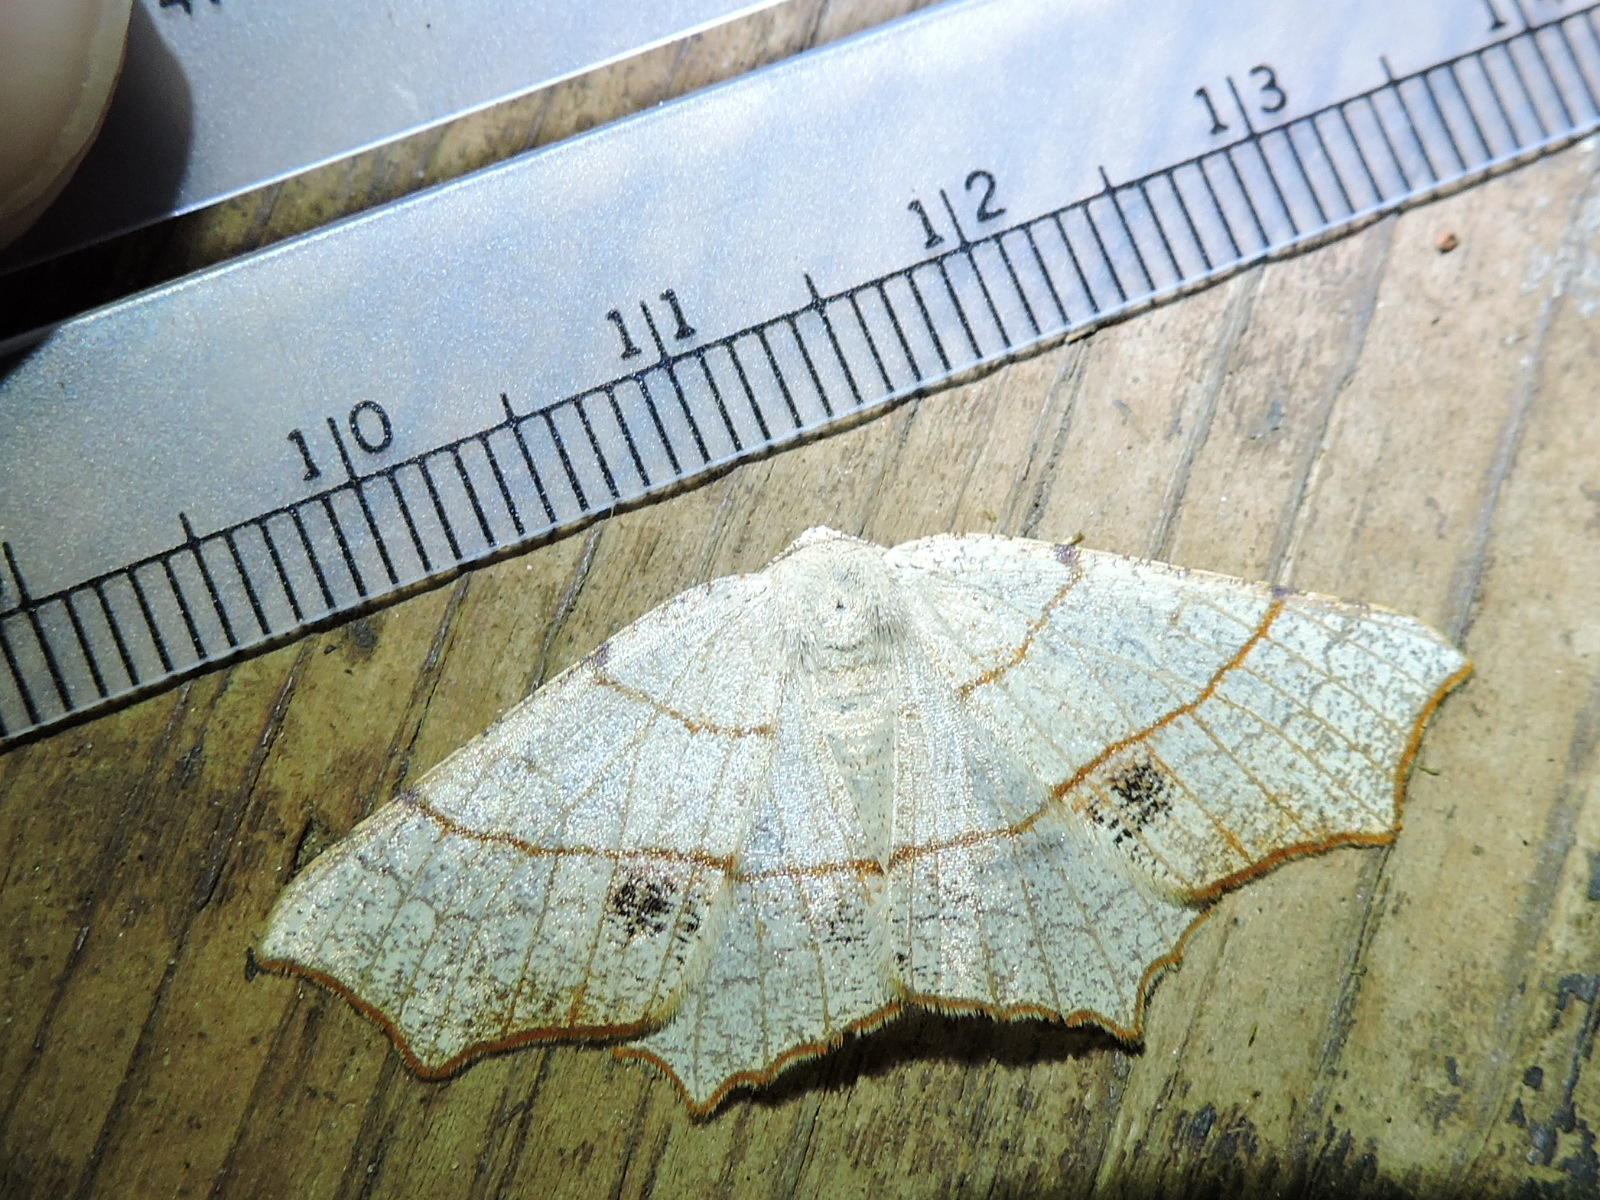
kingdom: Animalia
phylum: Arthropoda
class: Insecta
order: Lepidoptera
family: Geometridae
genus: Besma
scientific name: Besma quercivoraria
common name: Oak besma
